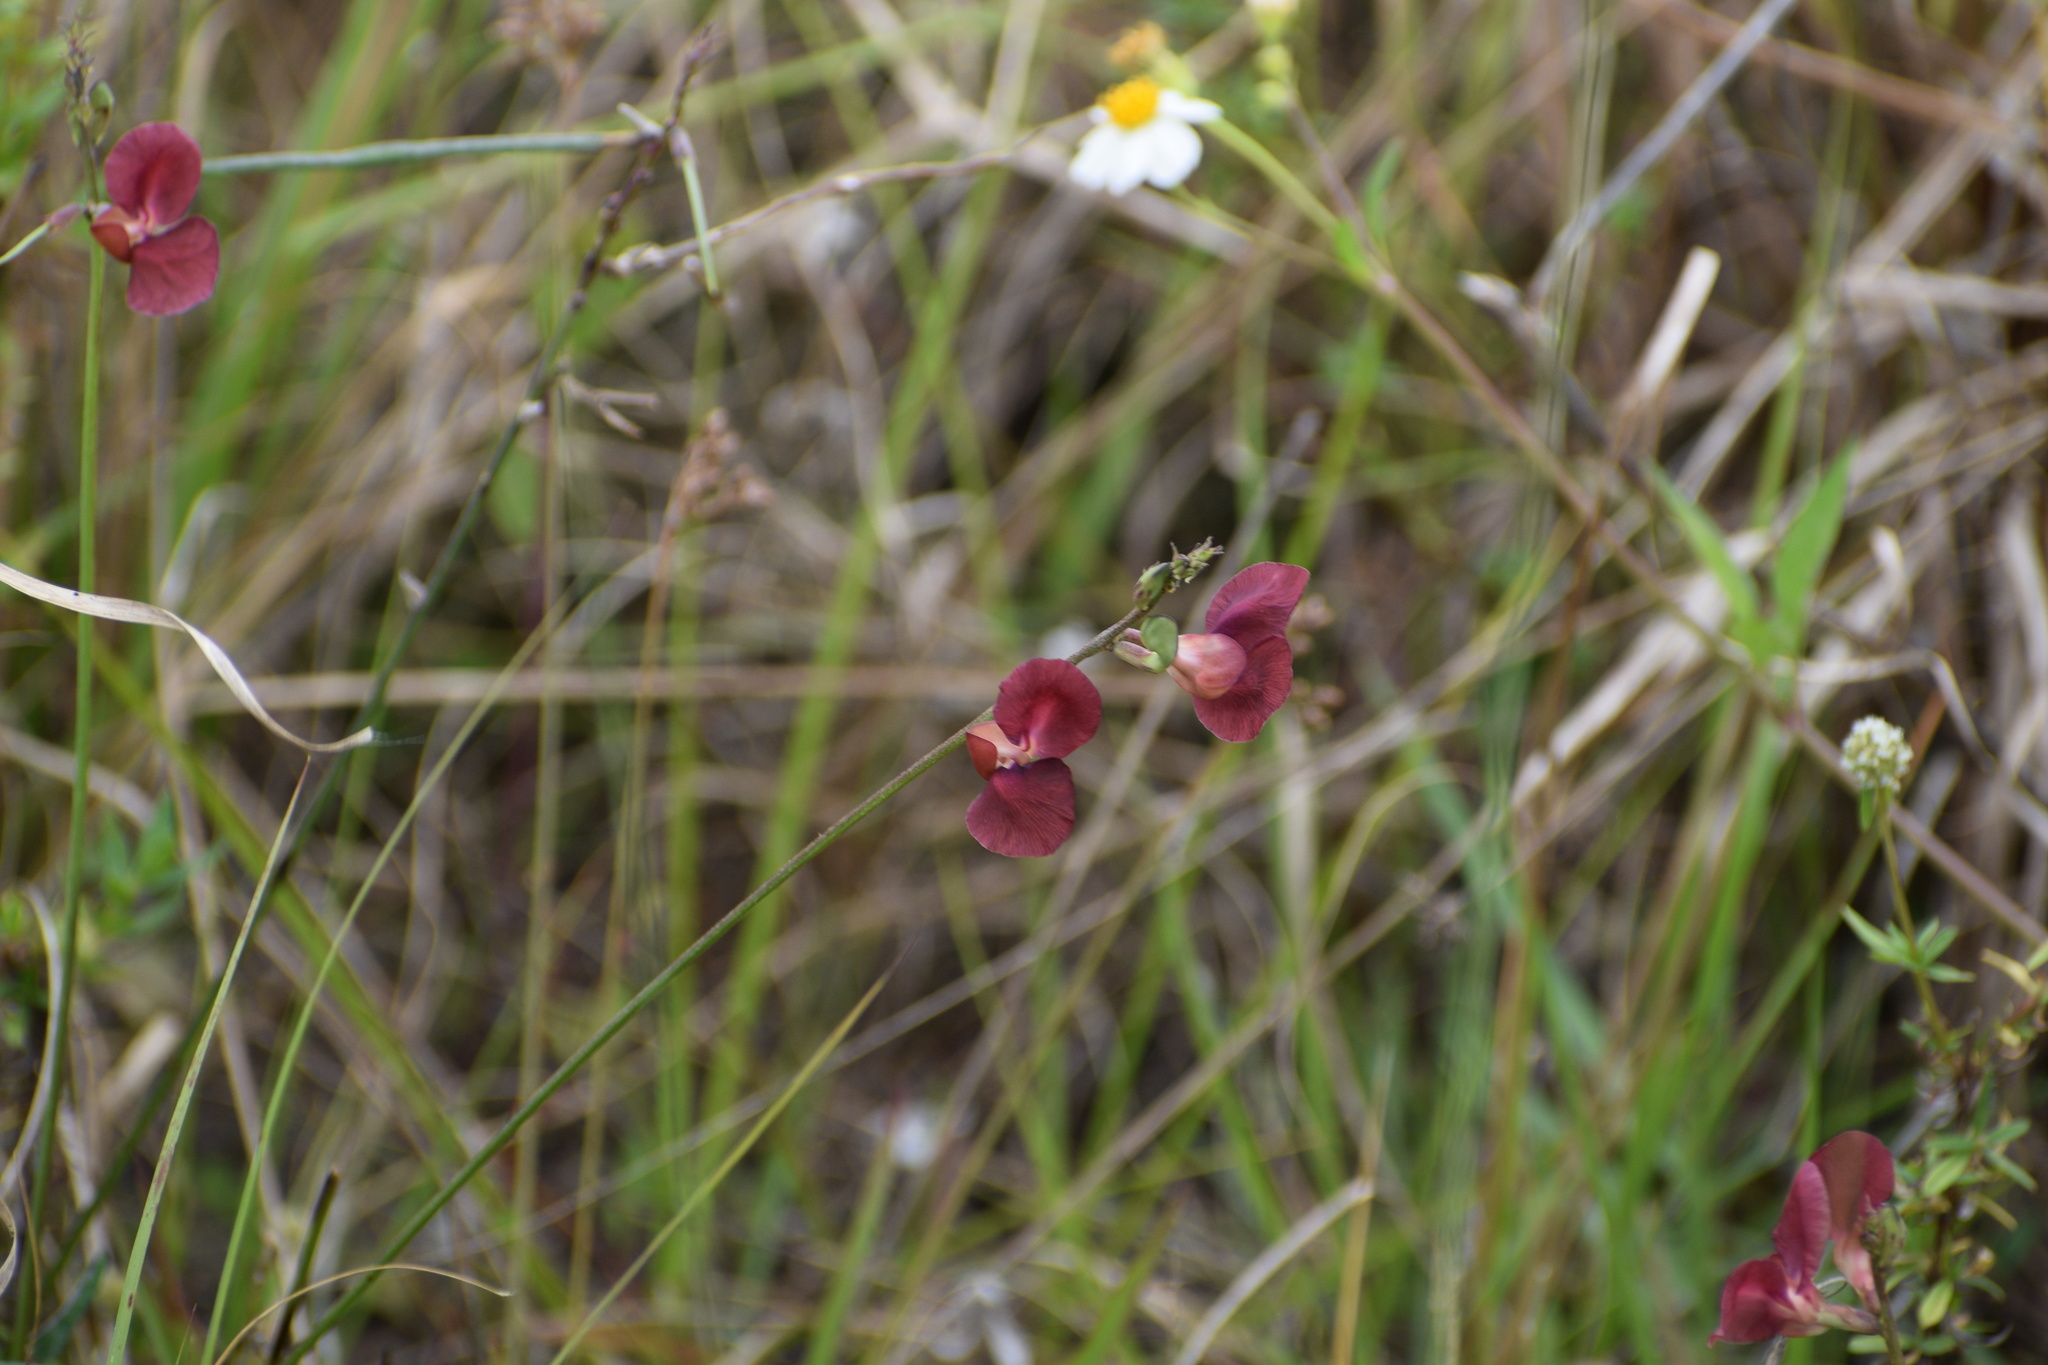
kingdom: Plantae
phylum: Tracheophyta
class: Magnoliopsida
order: Fabales
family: Fabaceae
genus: Macroptilium
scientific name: Macroptilium lathyroides
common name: Wild bushbean
